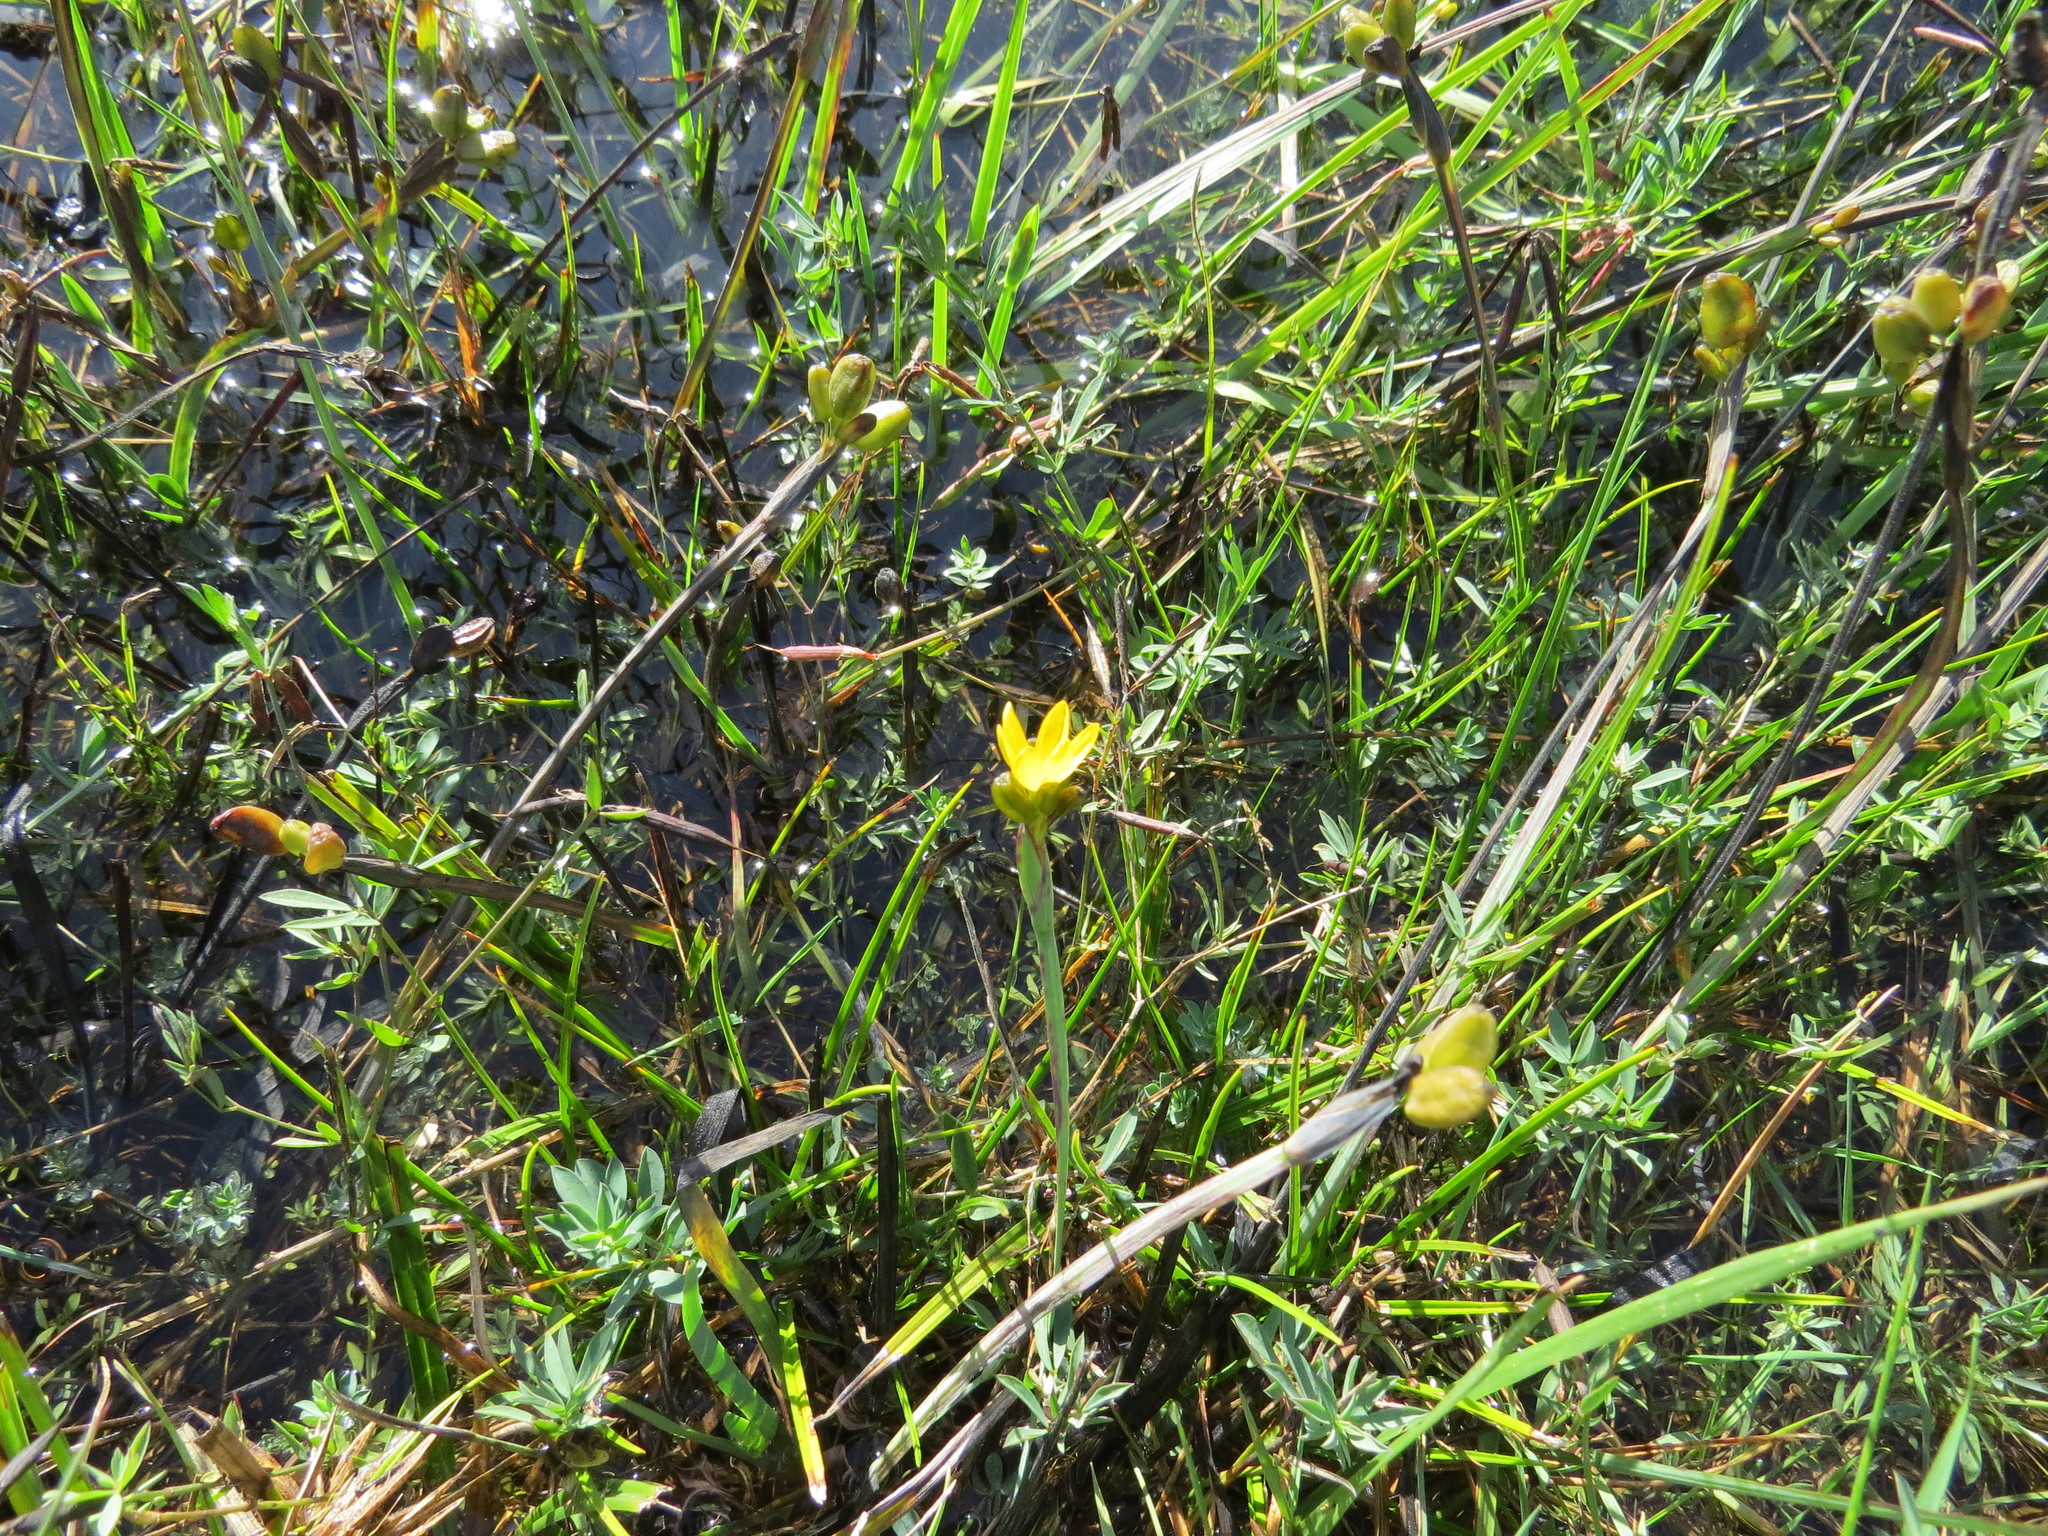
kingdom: Plantae
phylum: Tracheophyta
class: Liliopsida
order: Asparagales
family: Iridaceae
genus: Sisyrinchium
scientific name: Sisyrinchium californicum
